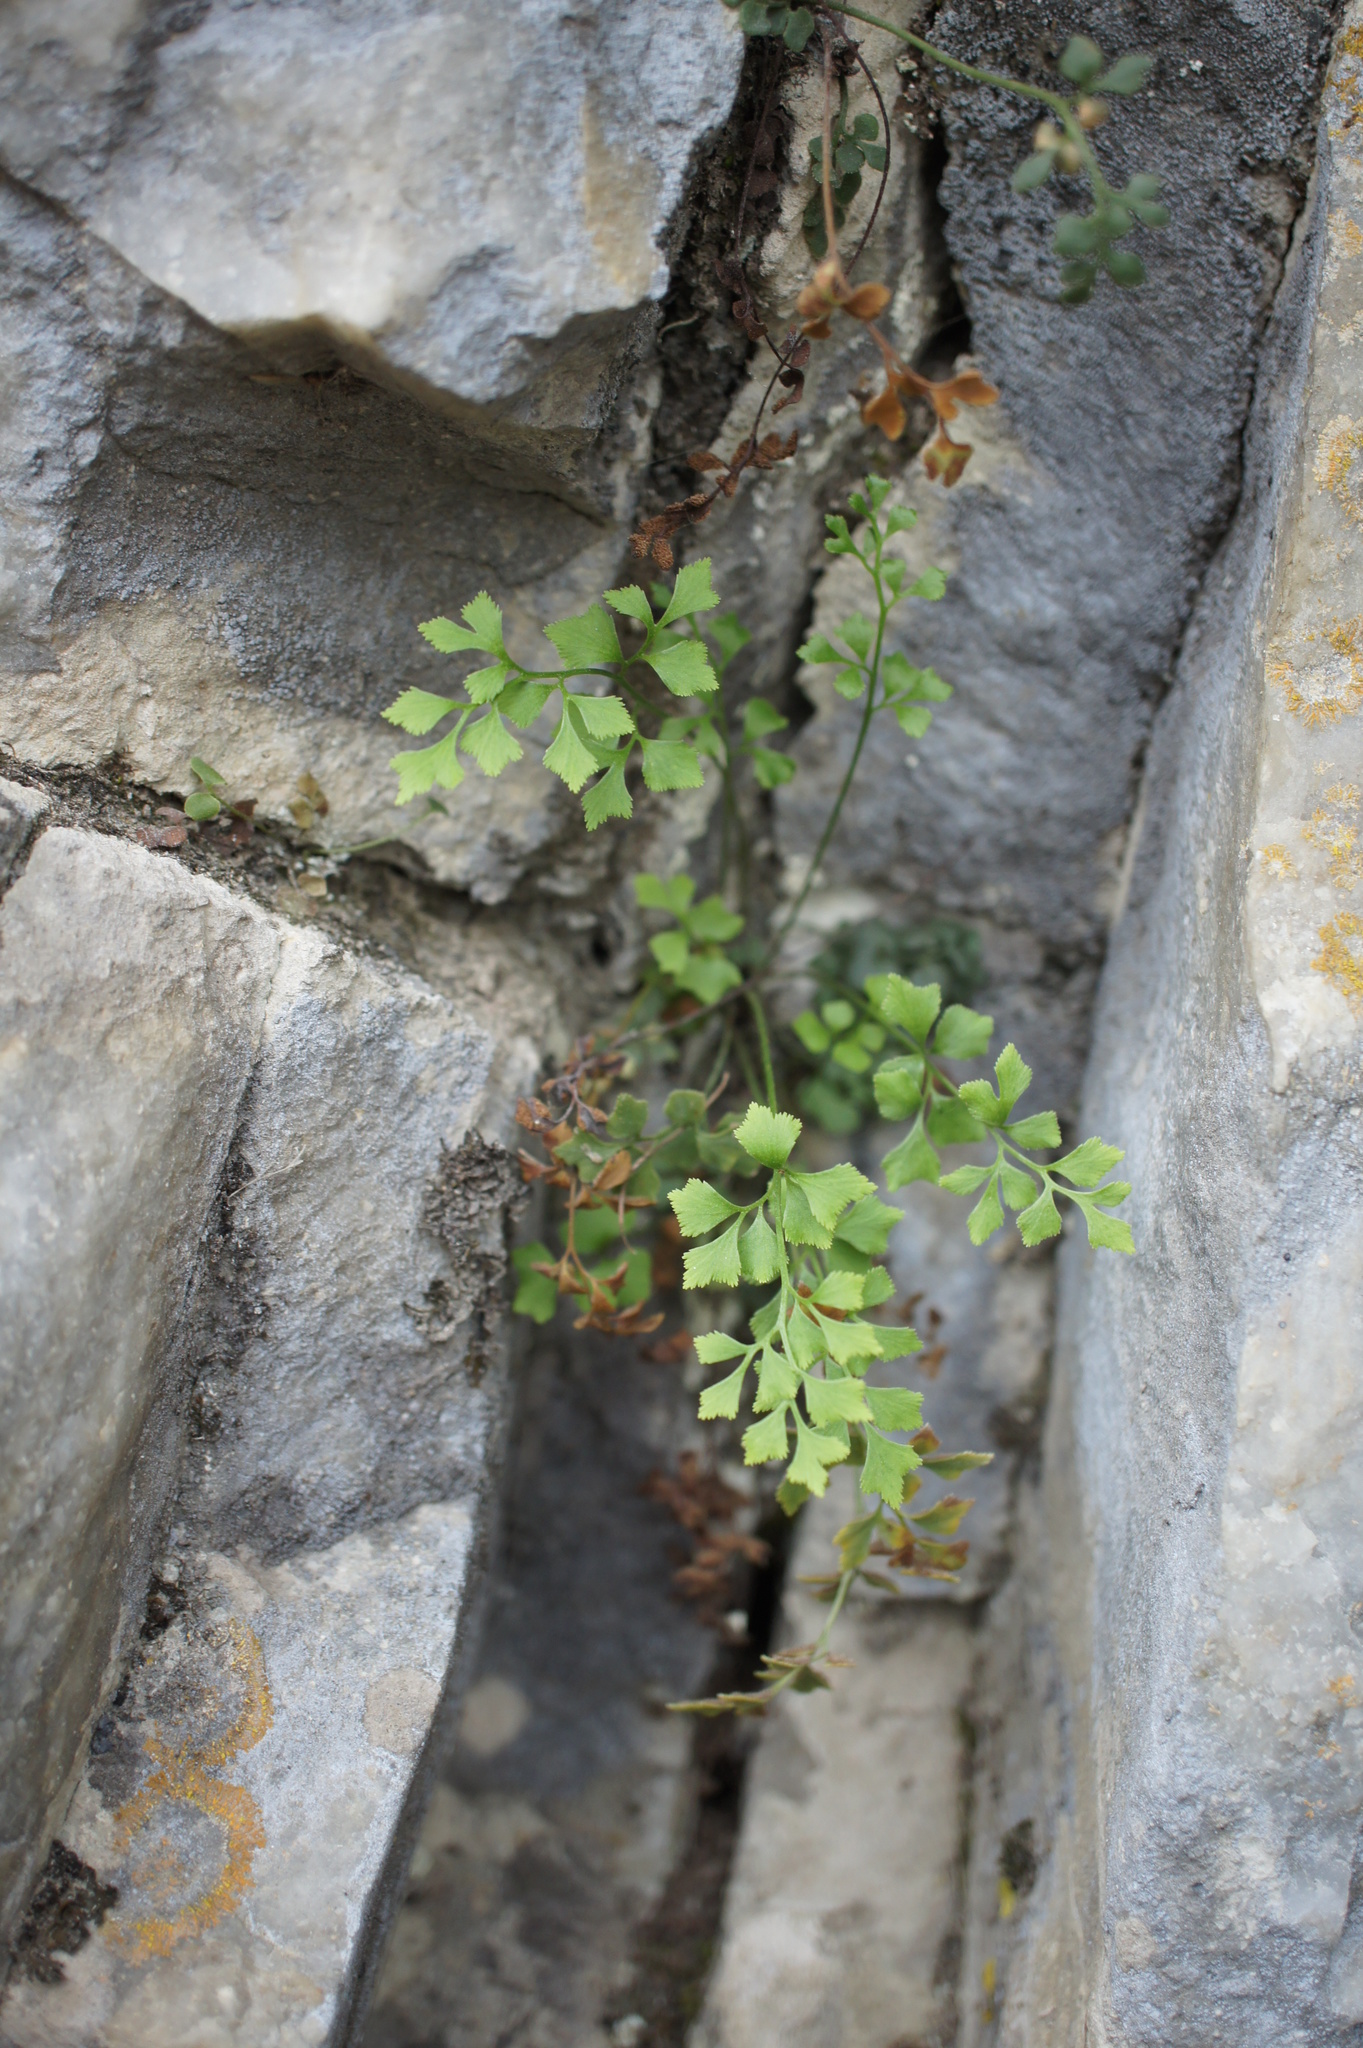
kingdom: Plantae
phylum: Tracheophyta
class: Polypodiopsida
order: Polypodiales
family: Aspleniaceae
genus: Asplenium
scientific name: Asplenium ruta-muraria
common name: Wall-rue
